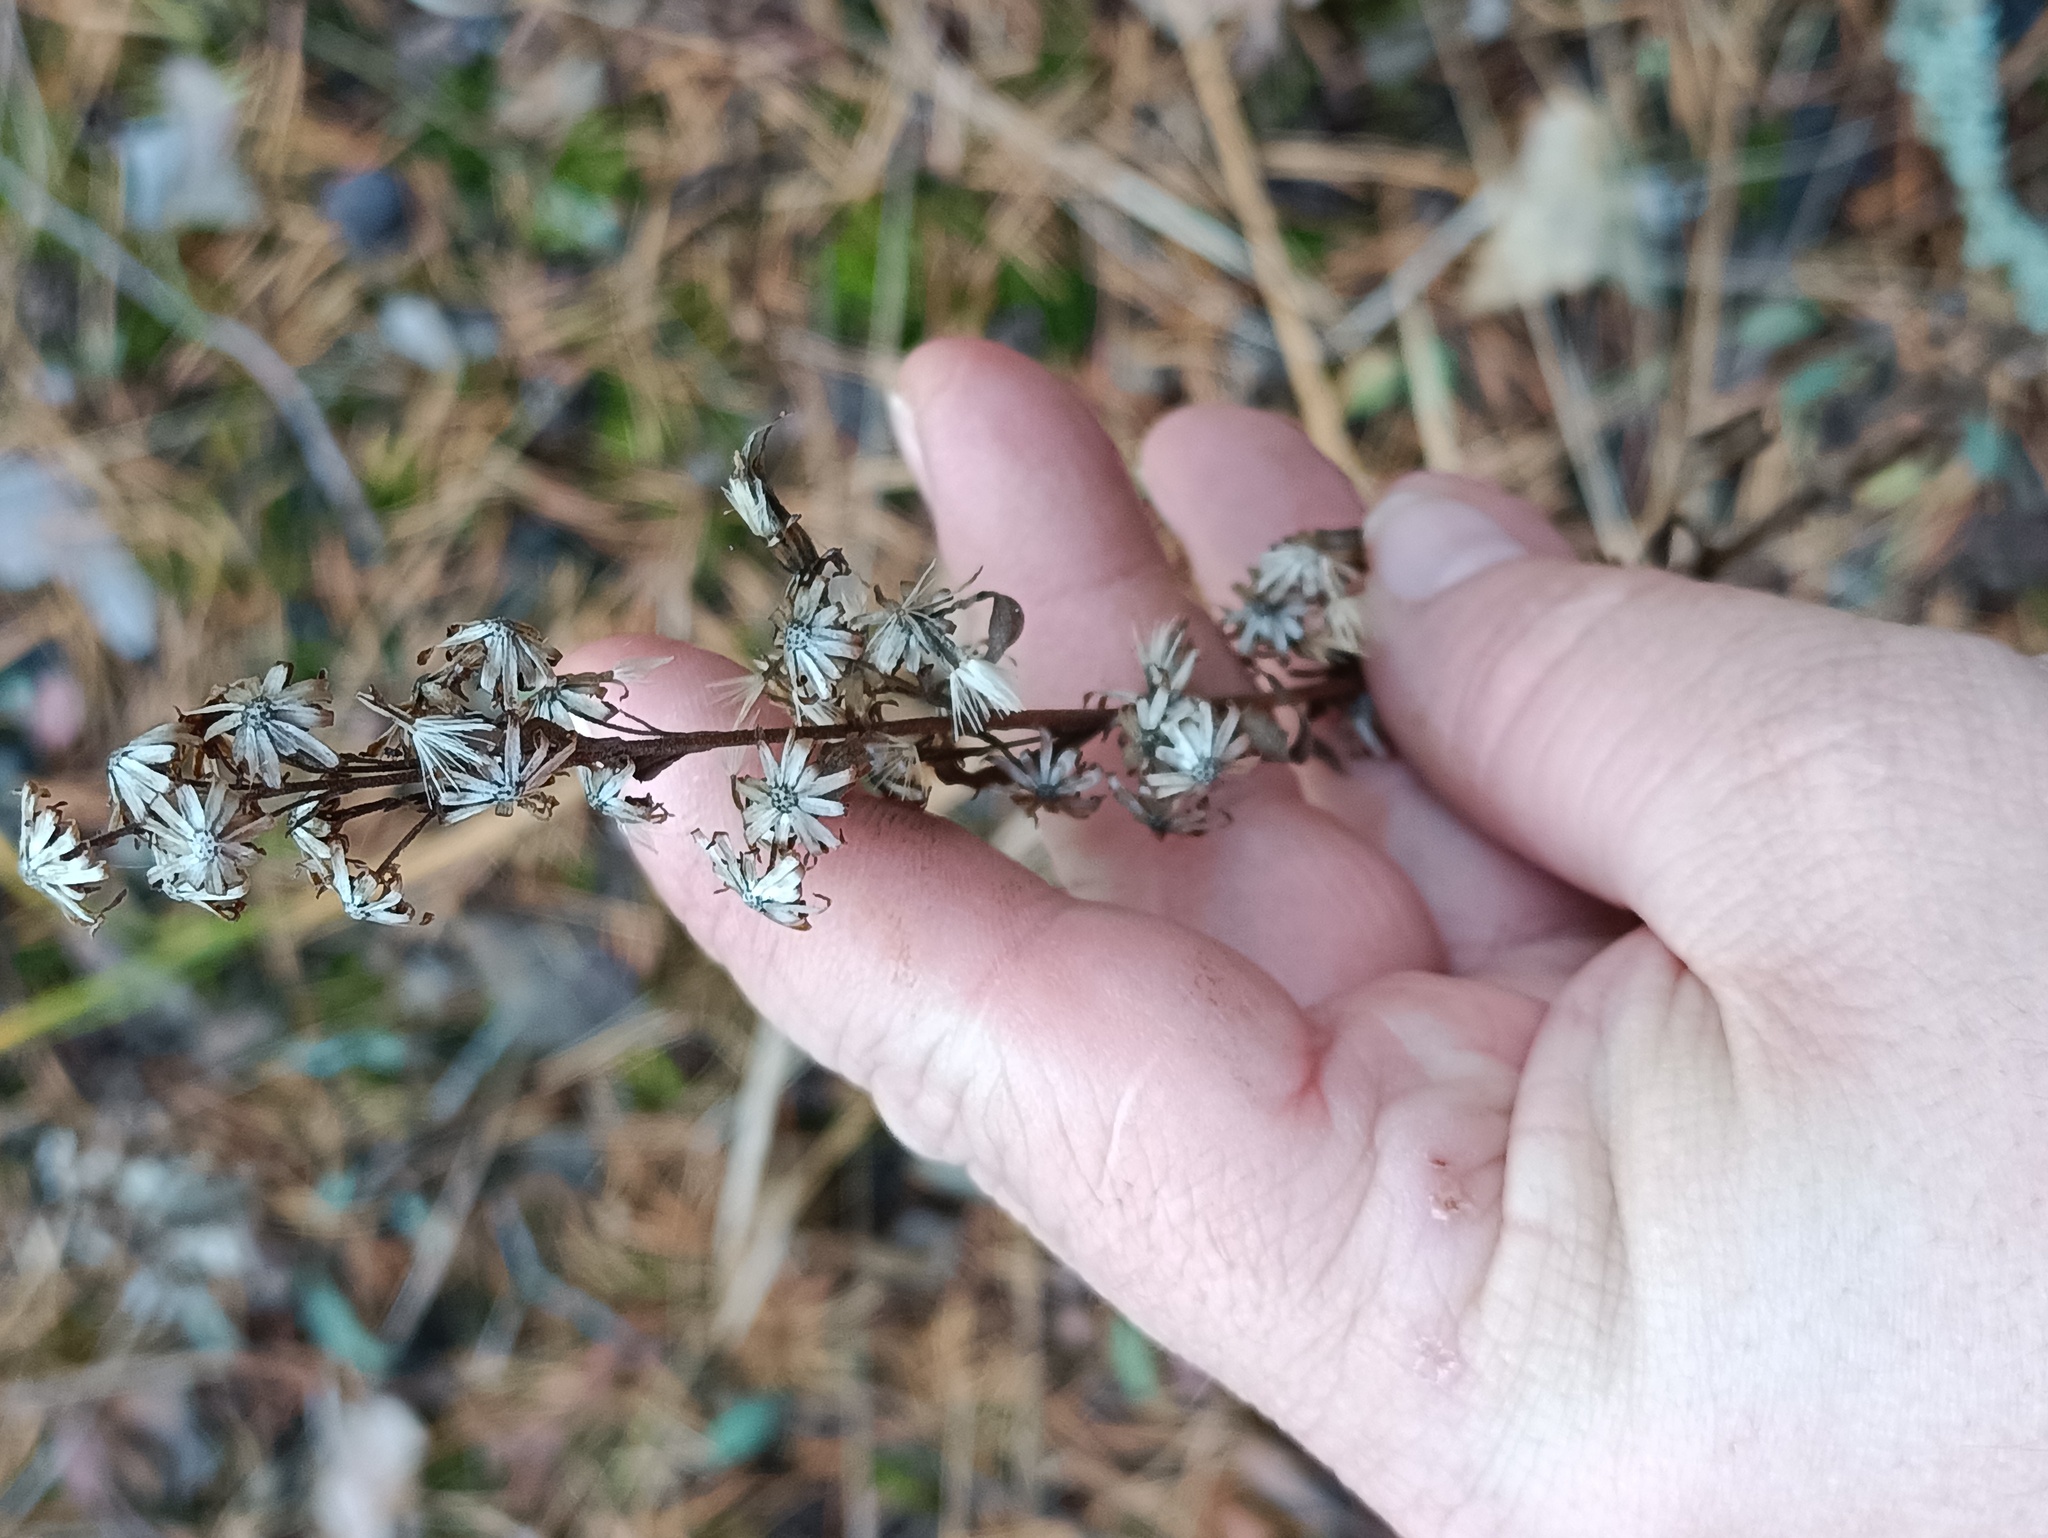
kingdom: Plantae
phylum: Tracheophyta
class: Magnoliopsida
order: Asterales
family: Asteraceae
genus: Solidago
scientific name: Solidago virgaurea
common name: Goldenrod
